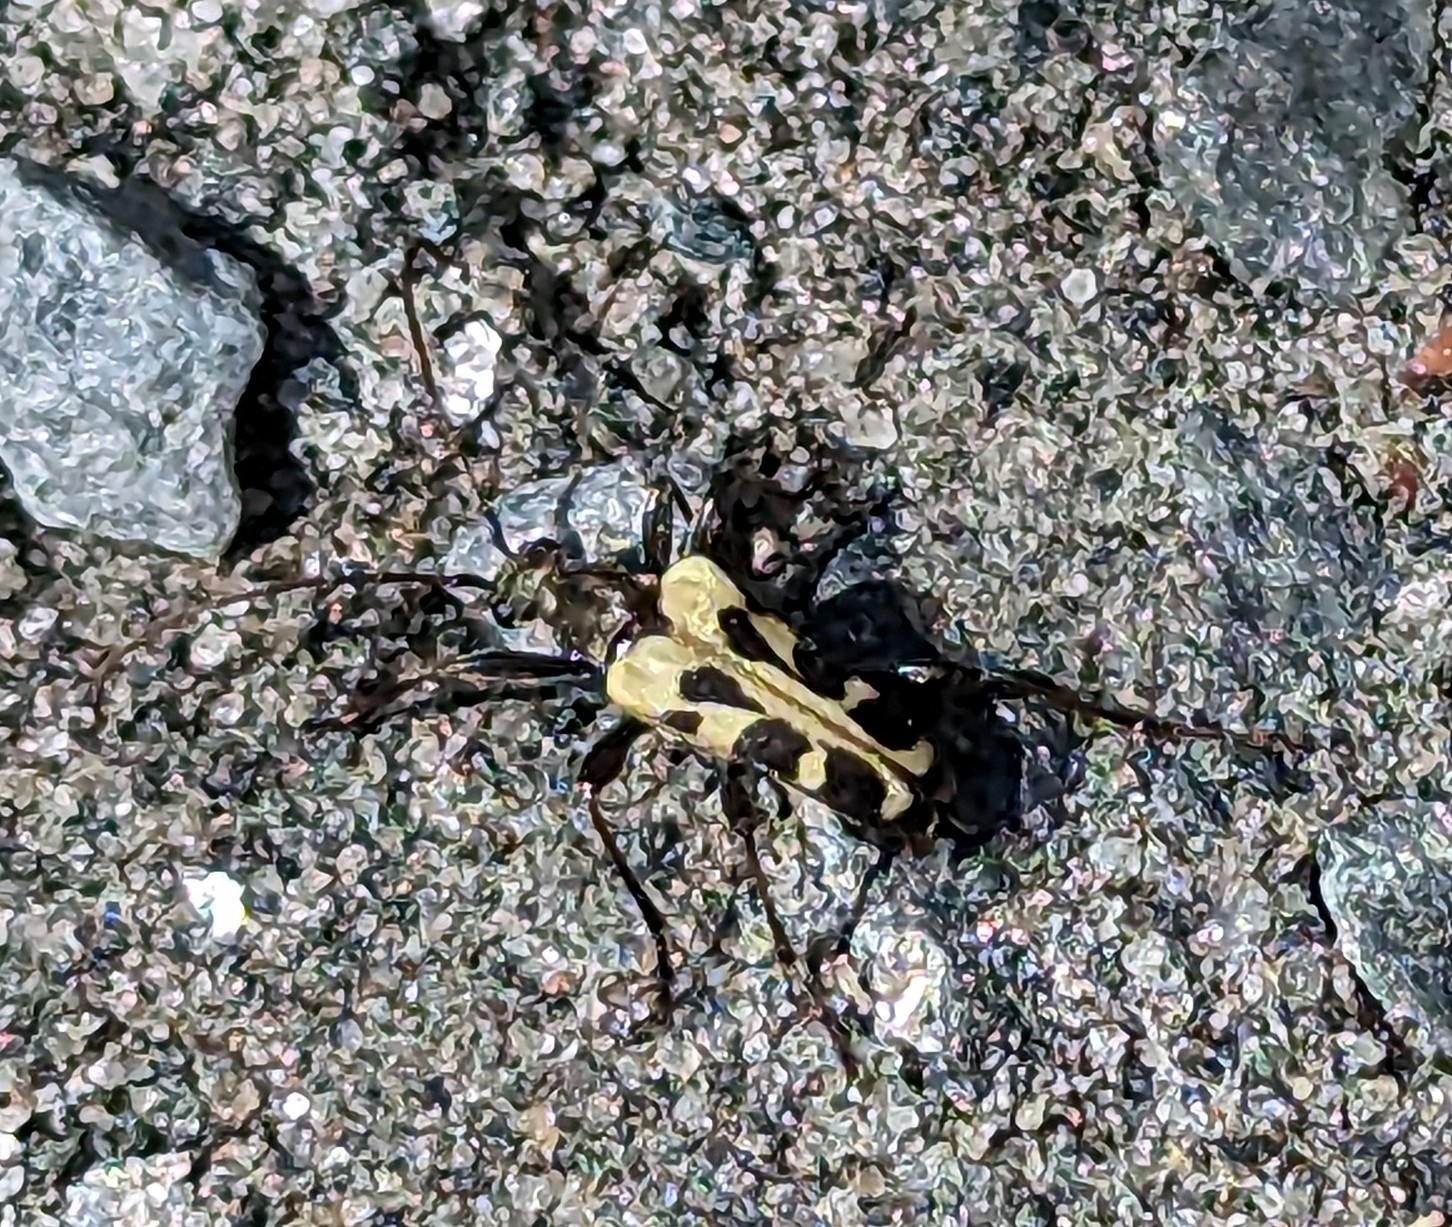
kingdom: Animalia
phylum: Arthropoda
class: Insecta
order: Coleoptera
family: Cerambycidae
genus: Evodinus
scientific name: Evodinus monticola
